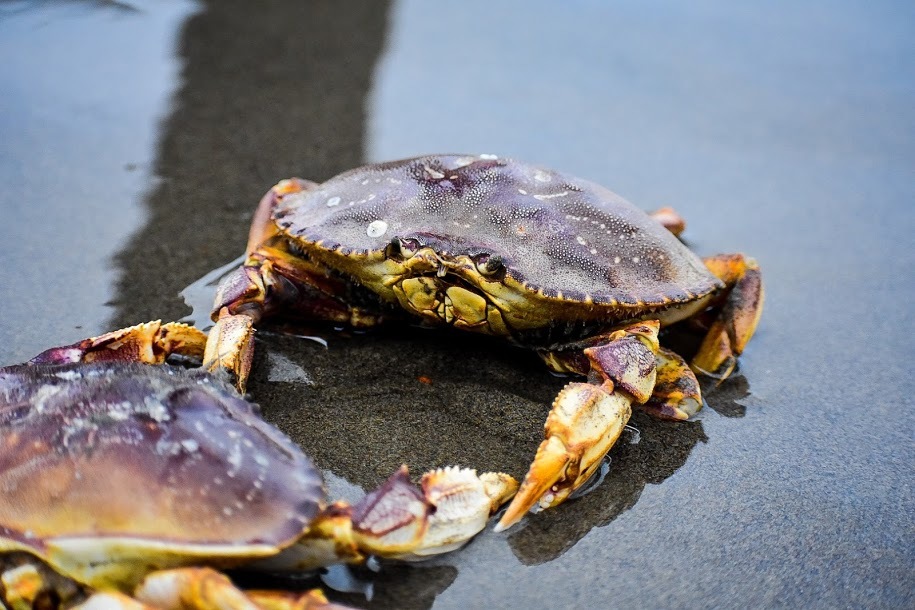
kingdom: Animalia
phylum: Arthropoda
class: Malacostraca
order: Decapoda
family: Cancridae
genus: Metacarcinus
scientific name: Metacarcinus magister
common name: Californian crab
